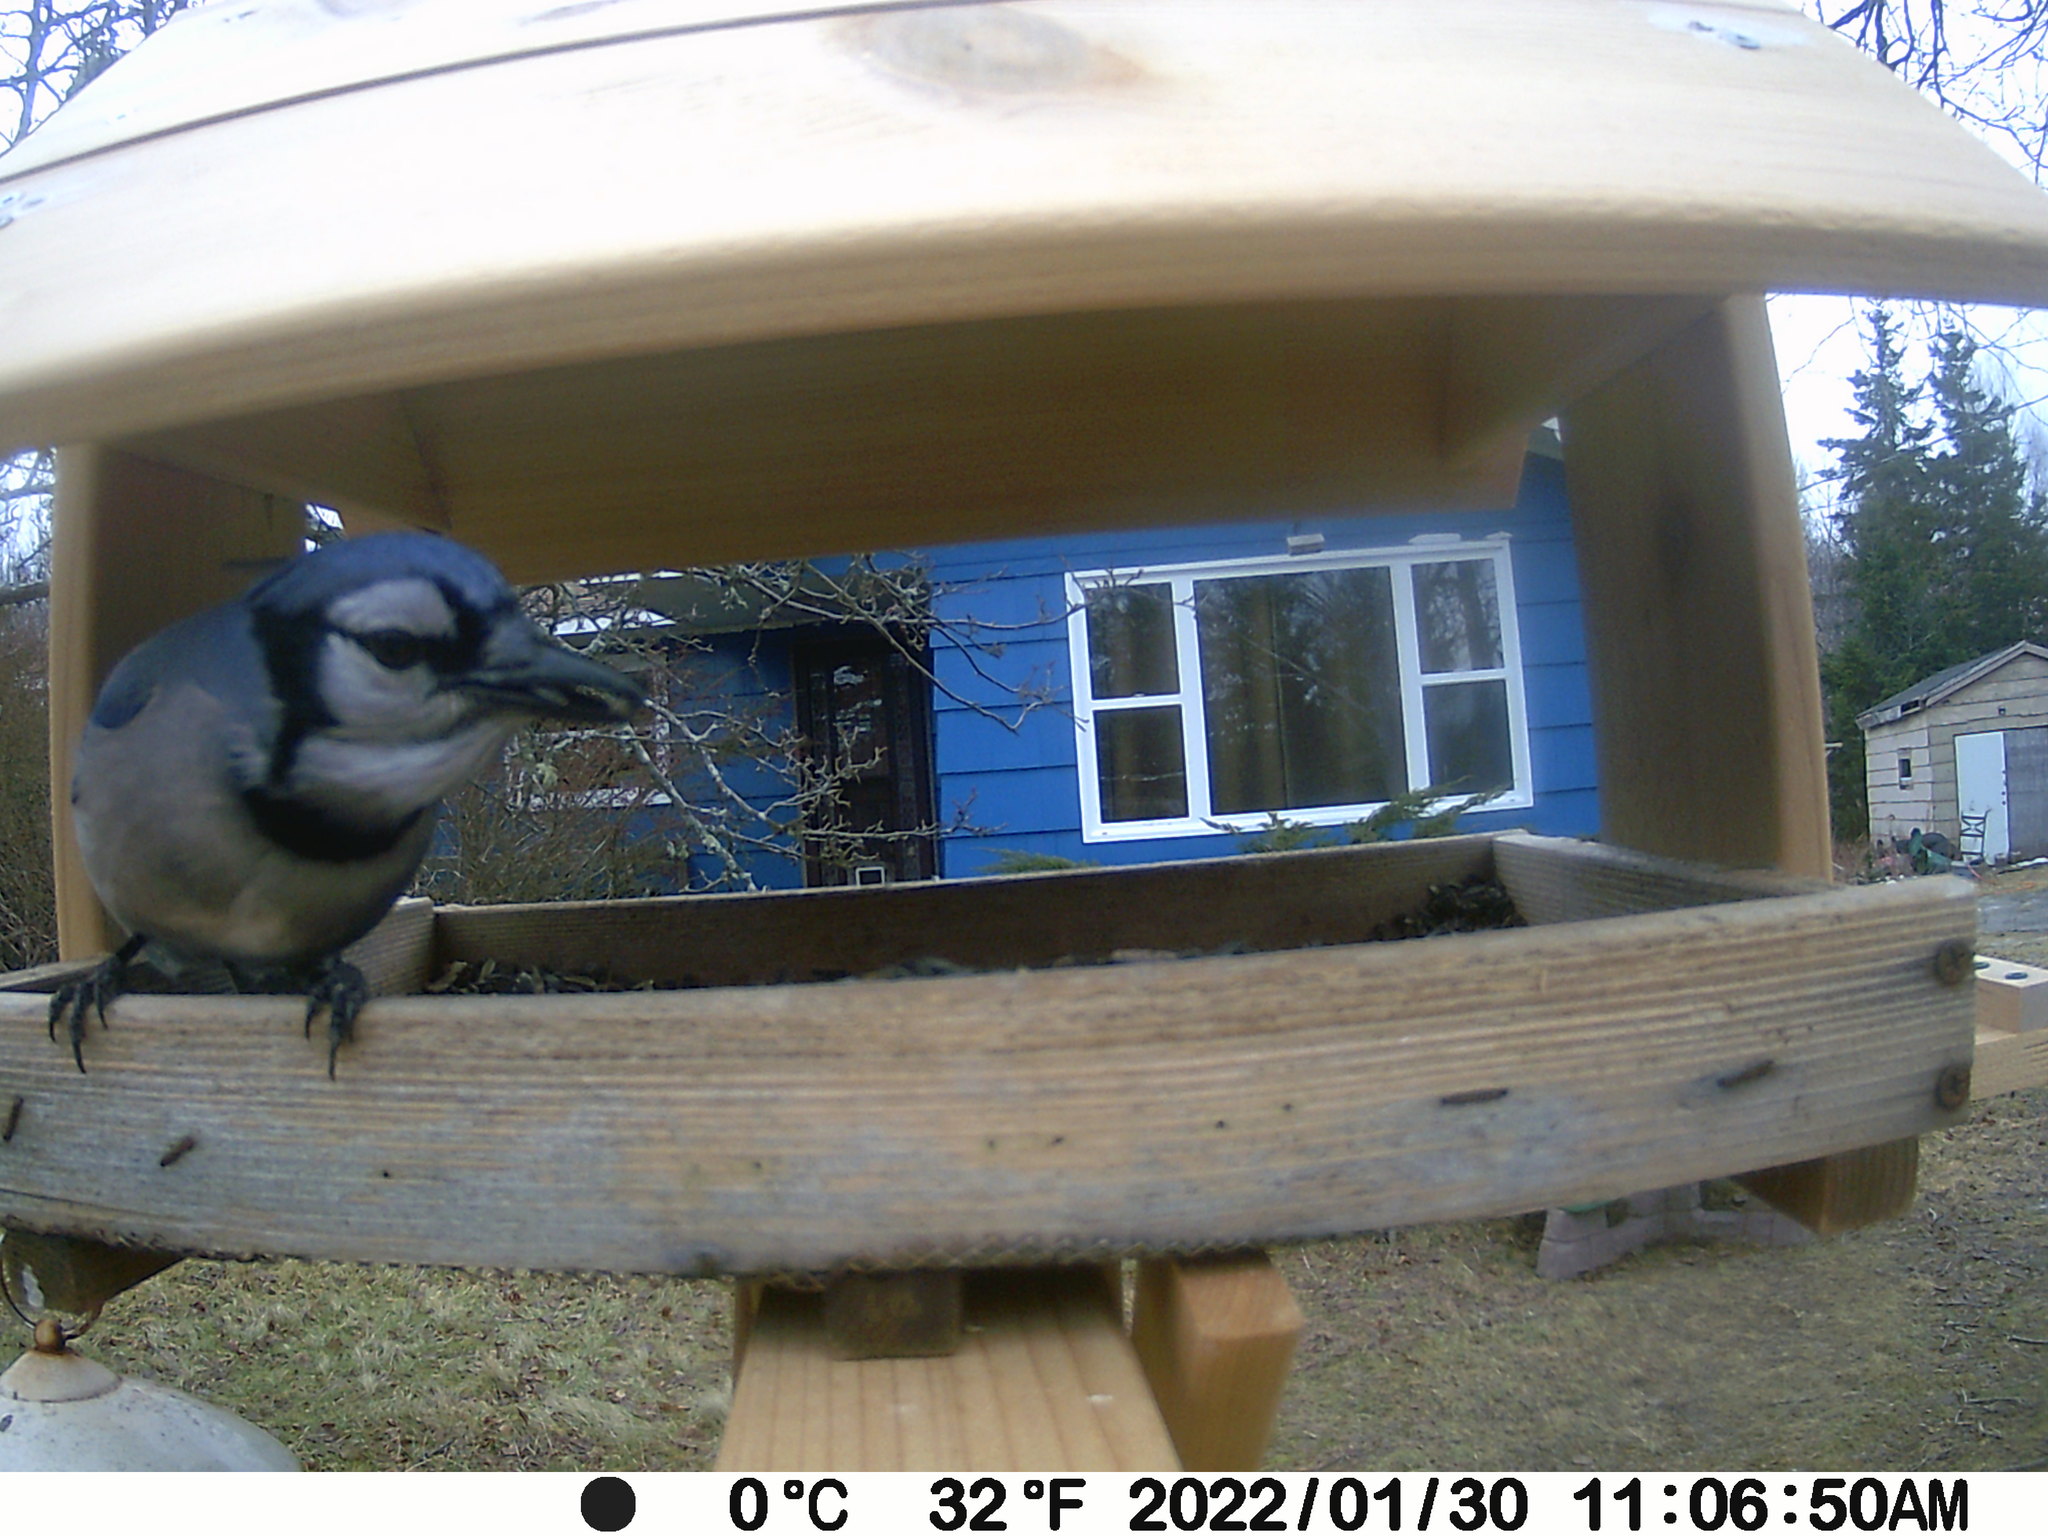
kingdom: Animalia
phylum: Chordata
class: Aves
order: Passeriformes
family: Corvidae
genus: Cyanocitta
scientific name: Cyanocitta cristata
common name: Blue jay
